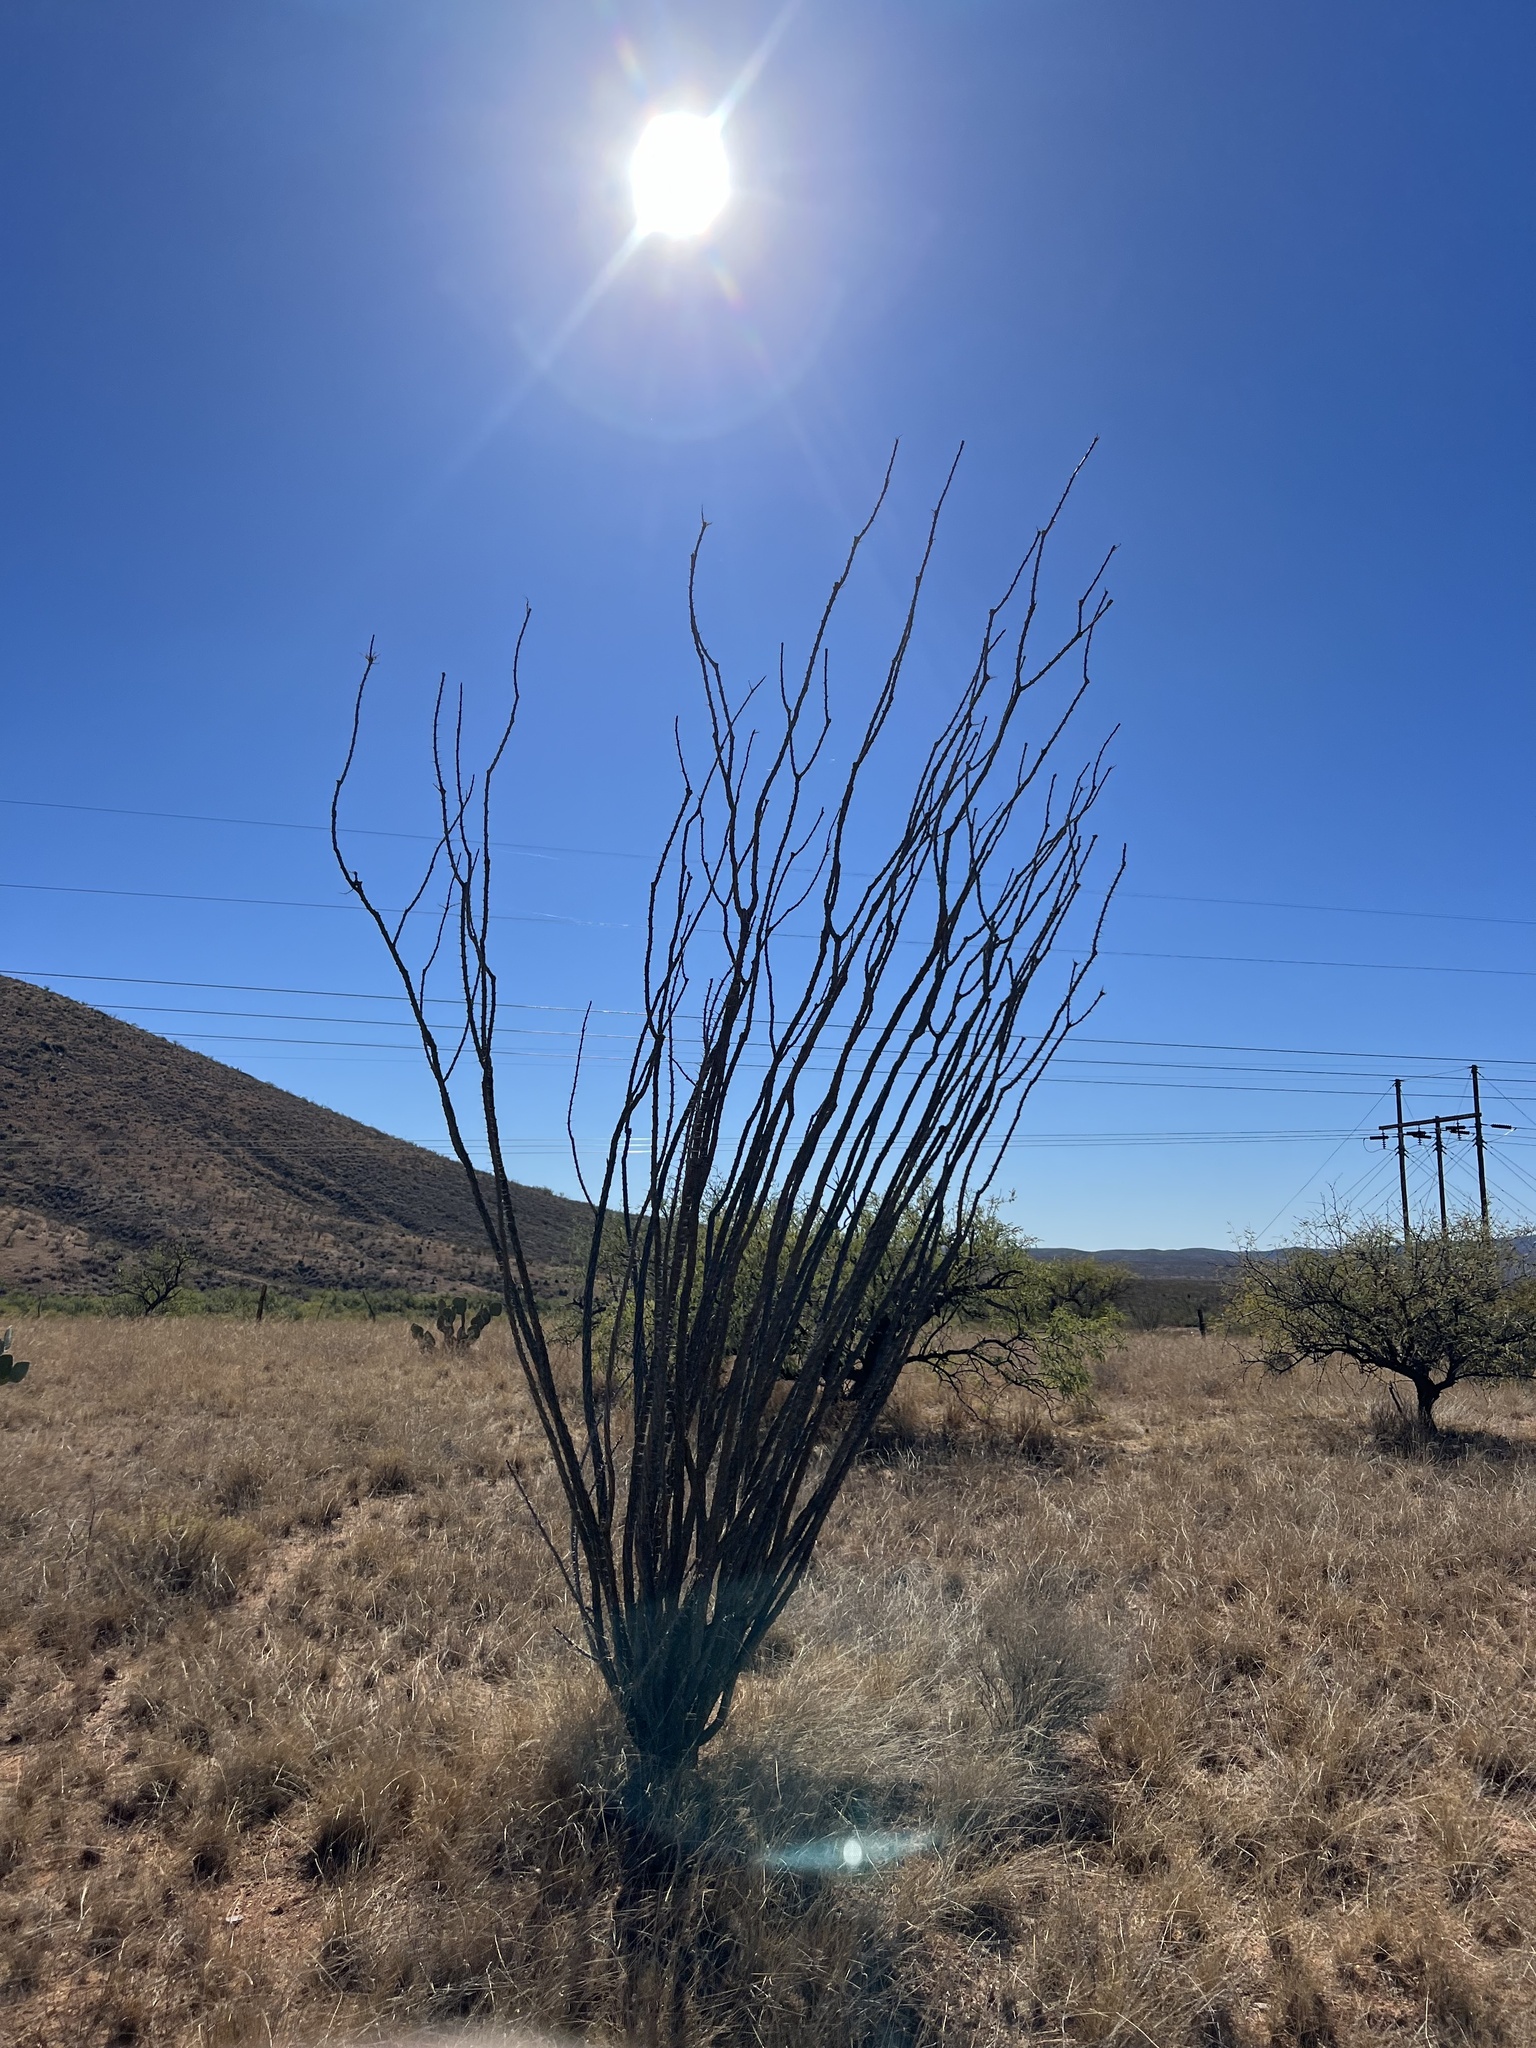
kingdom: Plantae
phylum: Tracheophyta
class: Magnoliopsida
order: Ericales
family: Fouquieriaceae
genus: Fouquieria
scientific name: Fouquieria splendens
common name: Vine-cactus
